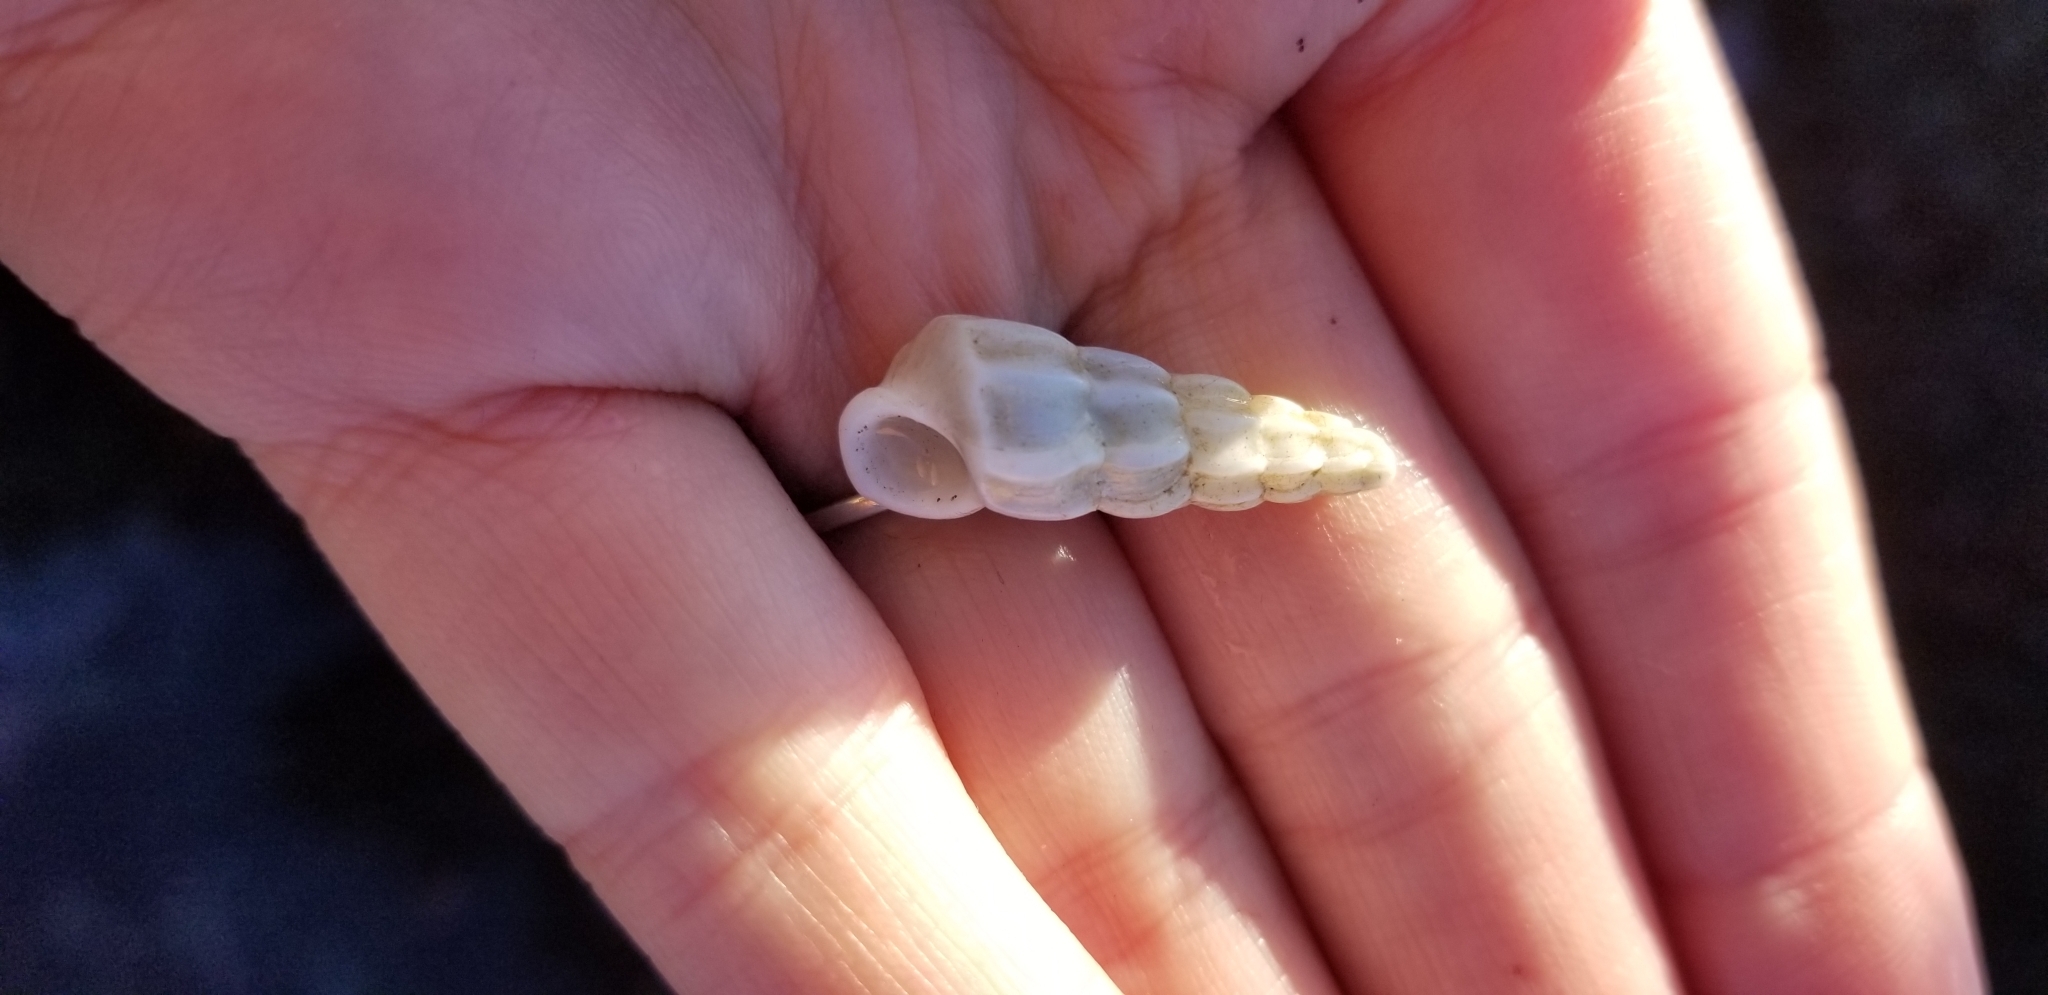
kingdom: Animalia
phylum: Mollusca
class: Gastropoda
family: Epitoniidae
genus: Opalia
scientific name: Opalia wroblewskyi
